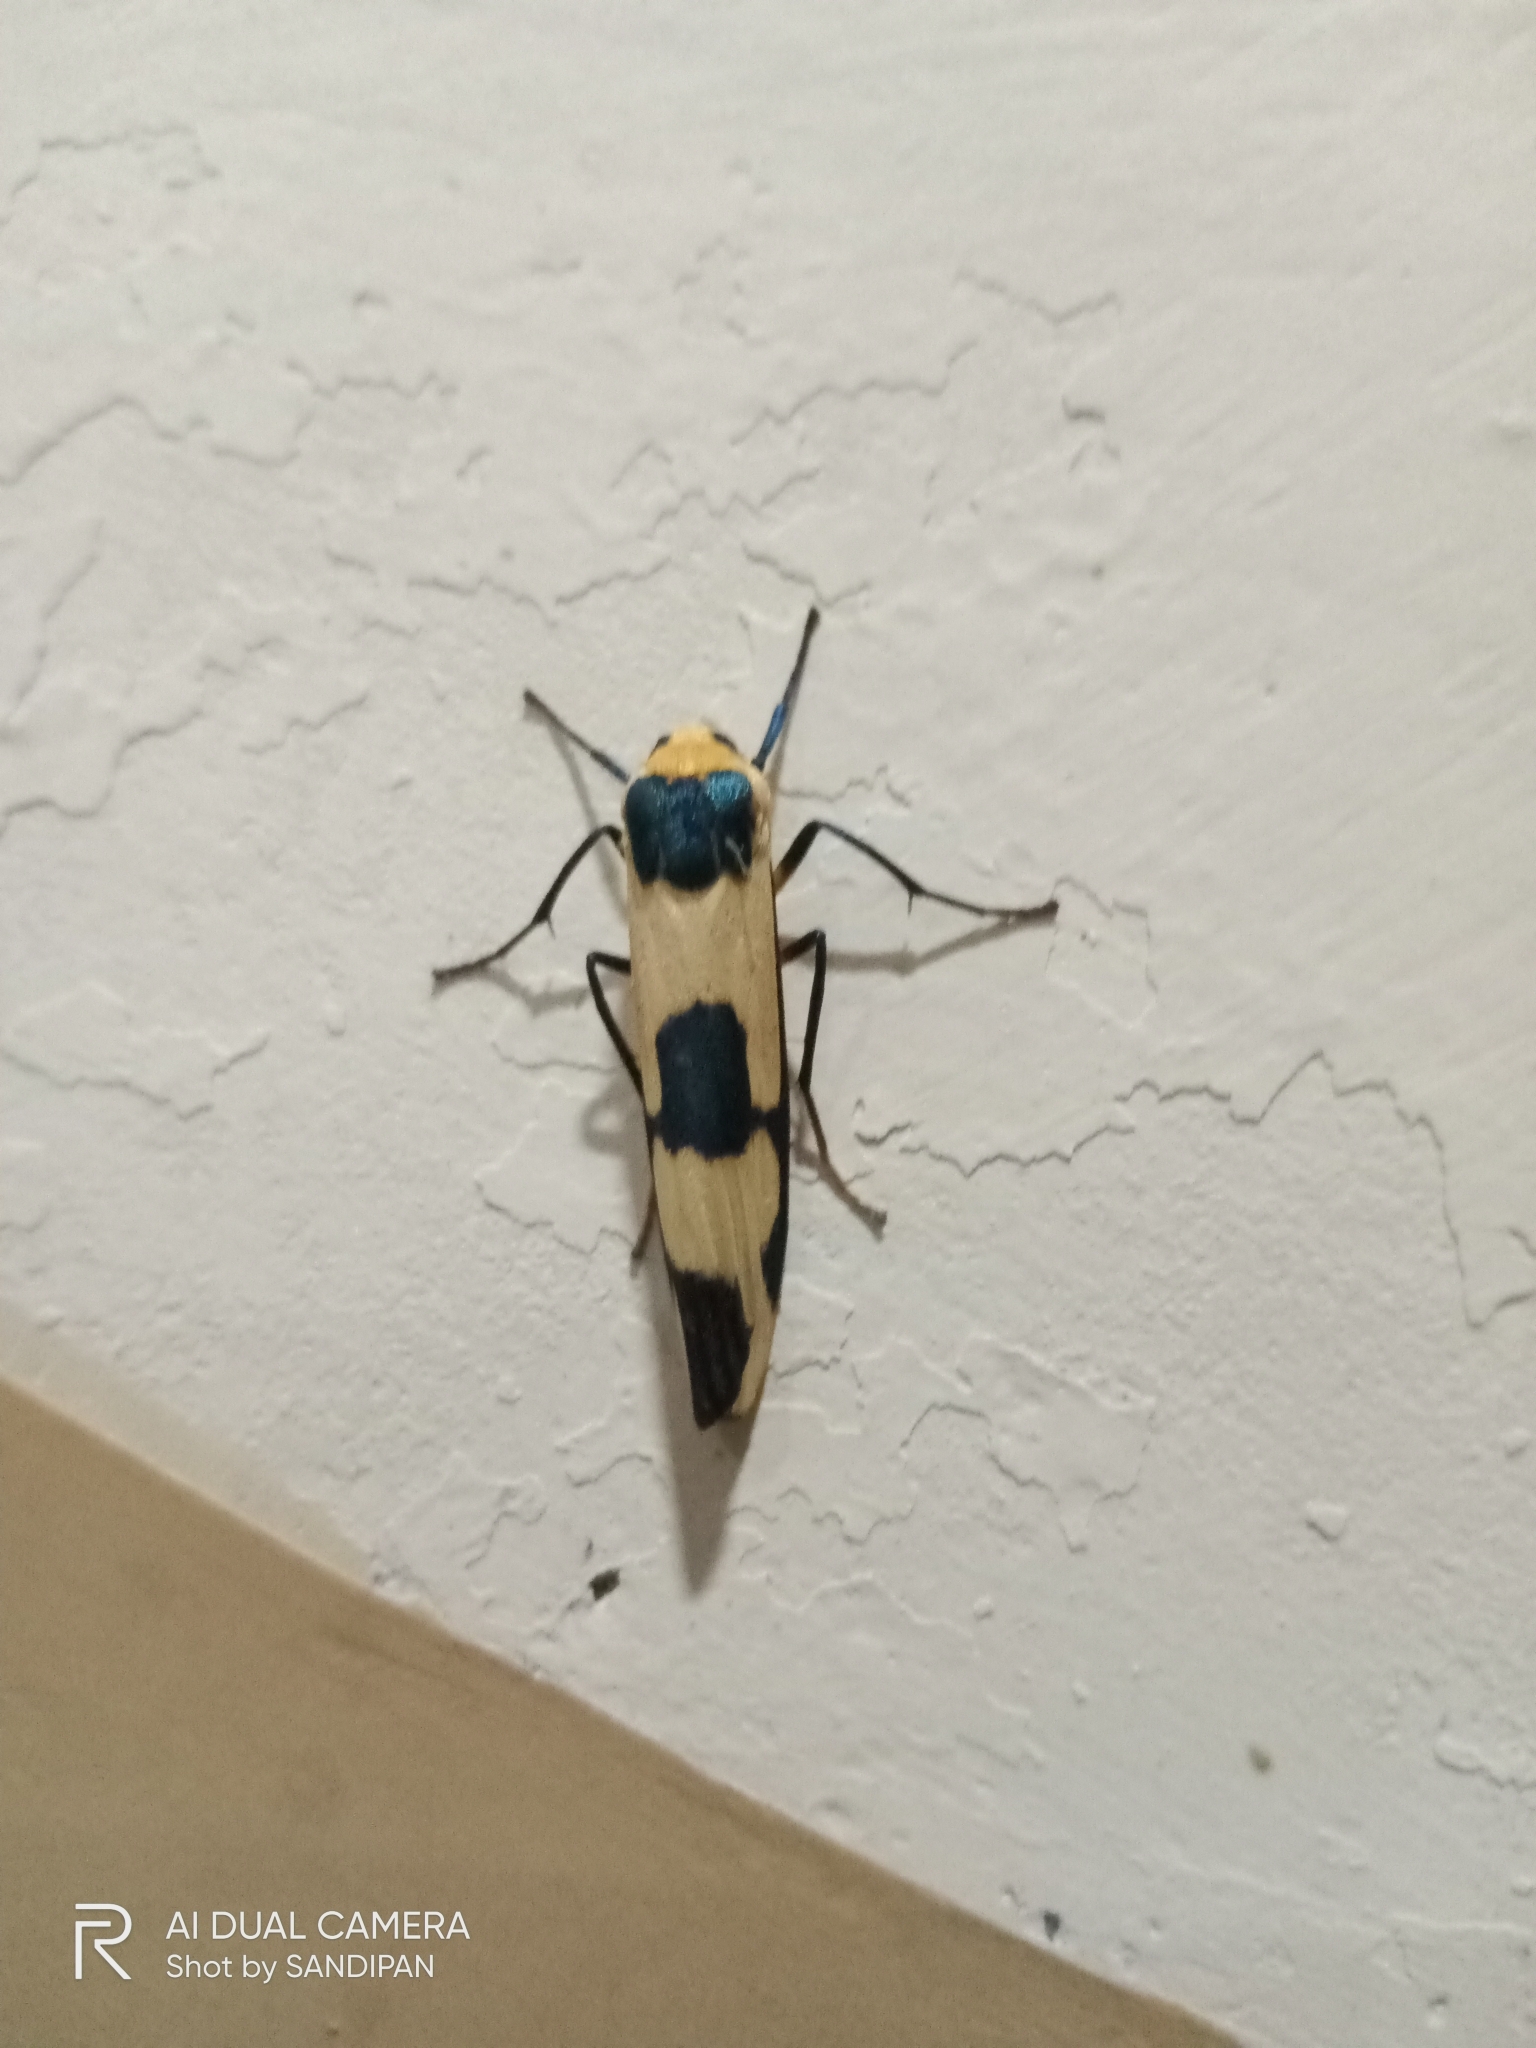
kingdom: Animalia
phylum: Arthropoda
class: Insecta
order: Lepidoptera
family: Erebidae
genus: Oeonistis
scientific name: Oeonistis entella
